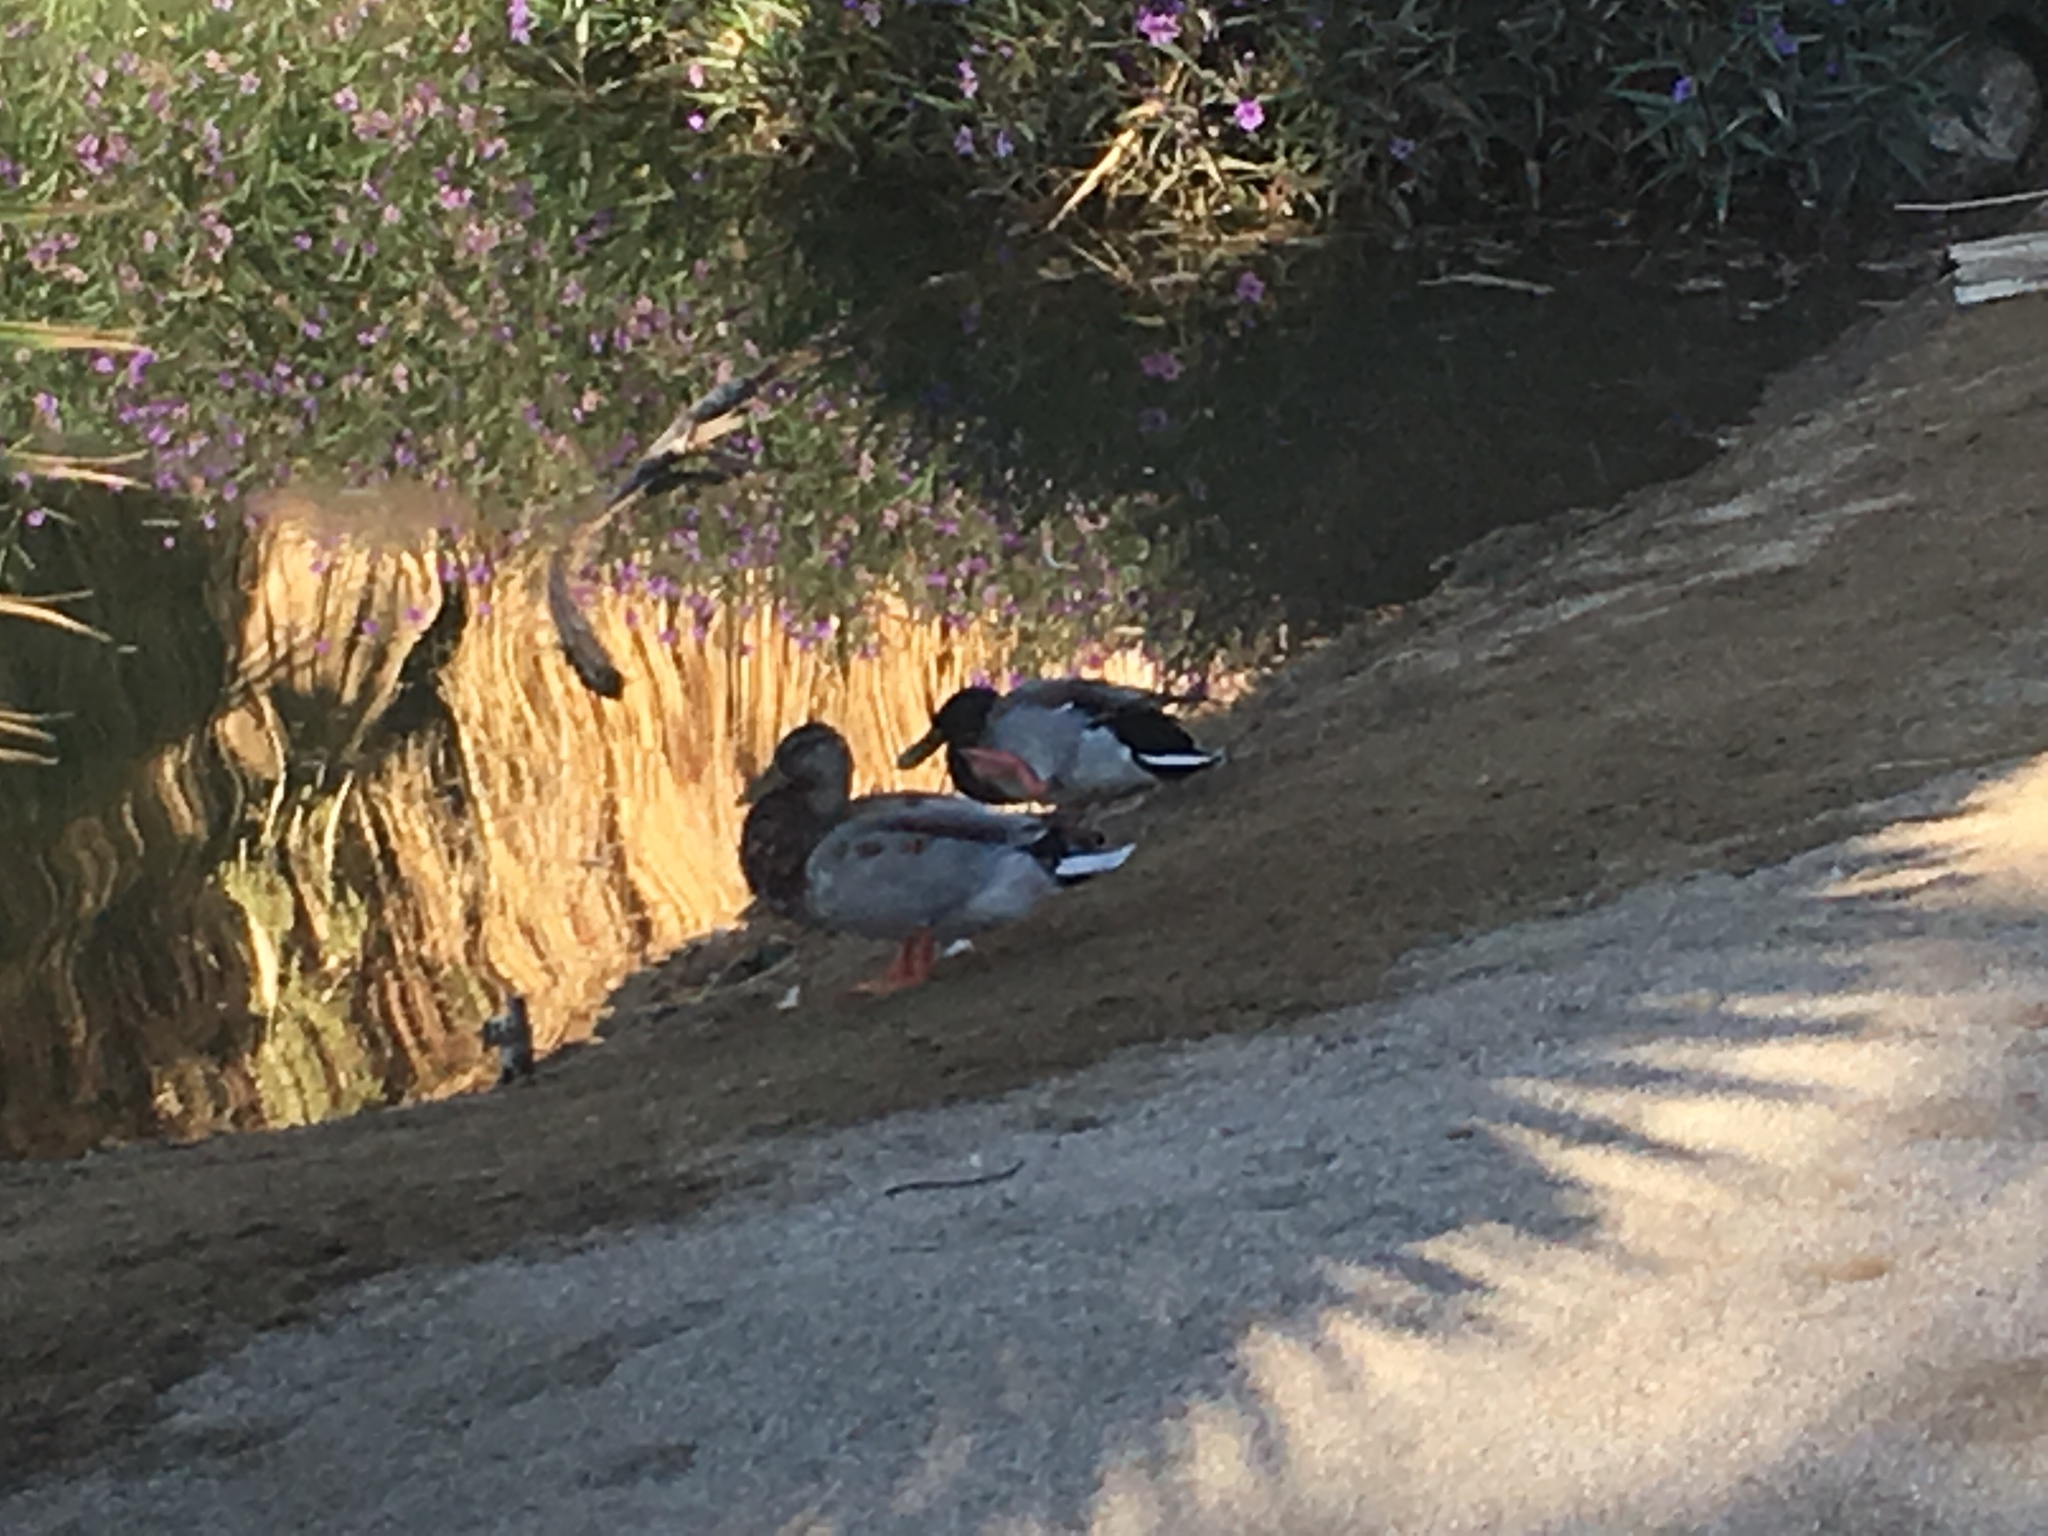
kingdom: Animalia
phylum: Chordata
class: Aves
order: Anseriformes
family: Anatidae
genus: Anas
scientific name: Anas platyrhynchos
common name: Mallard
